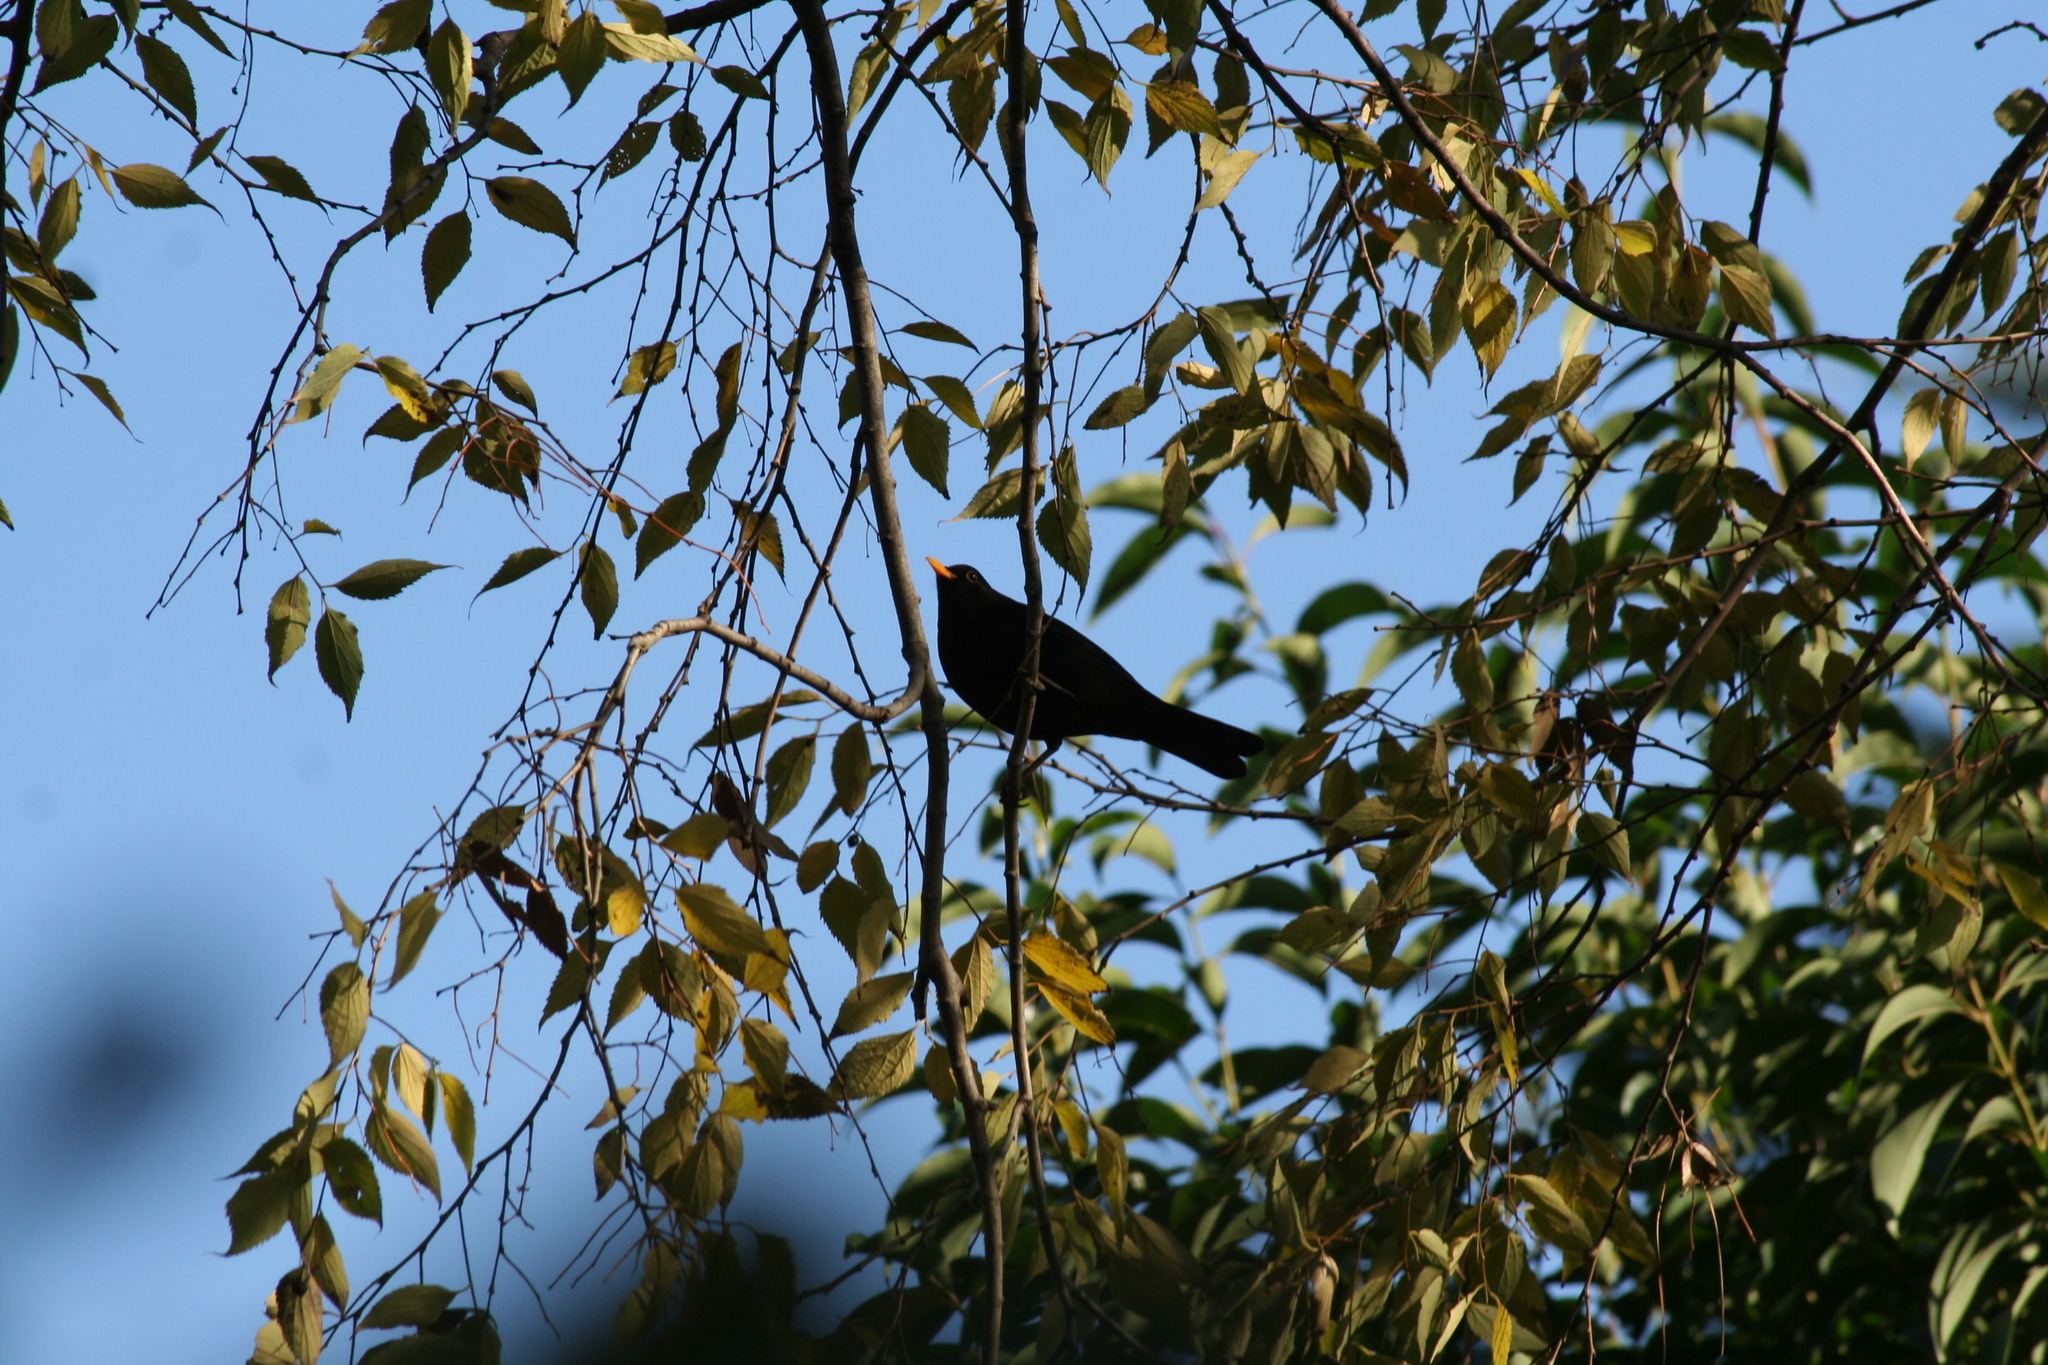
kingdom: Animalia
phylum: Chordata
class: Aves
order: Passeriformes
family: Turdidae
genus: Turdus
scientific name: Turdus merula
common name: Common blackbird
